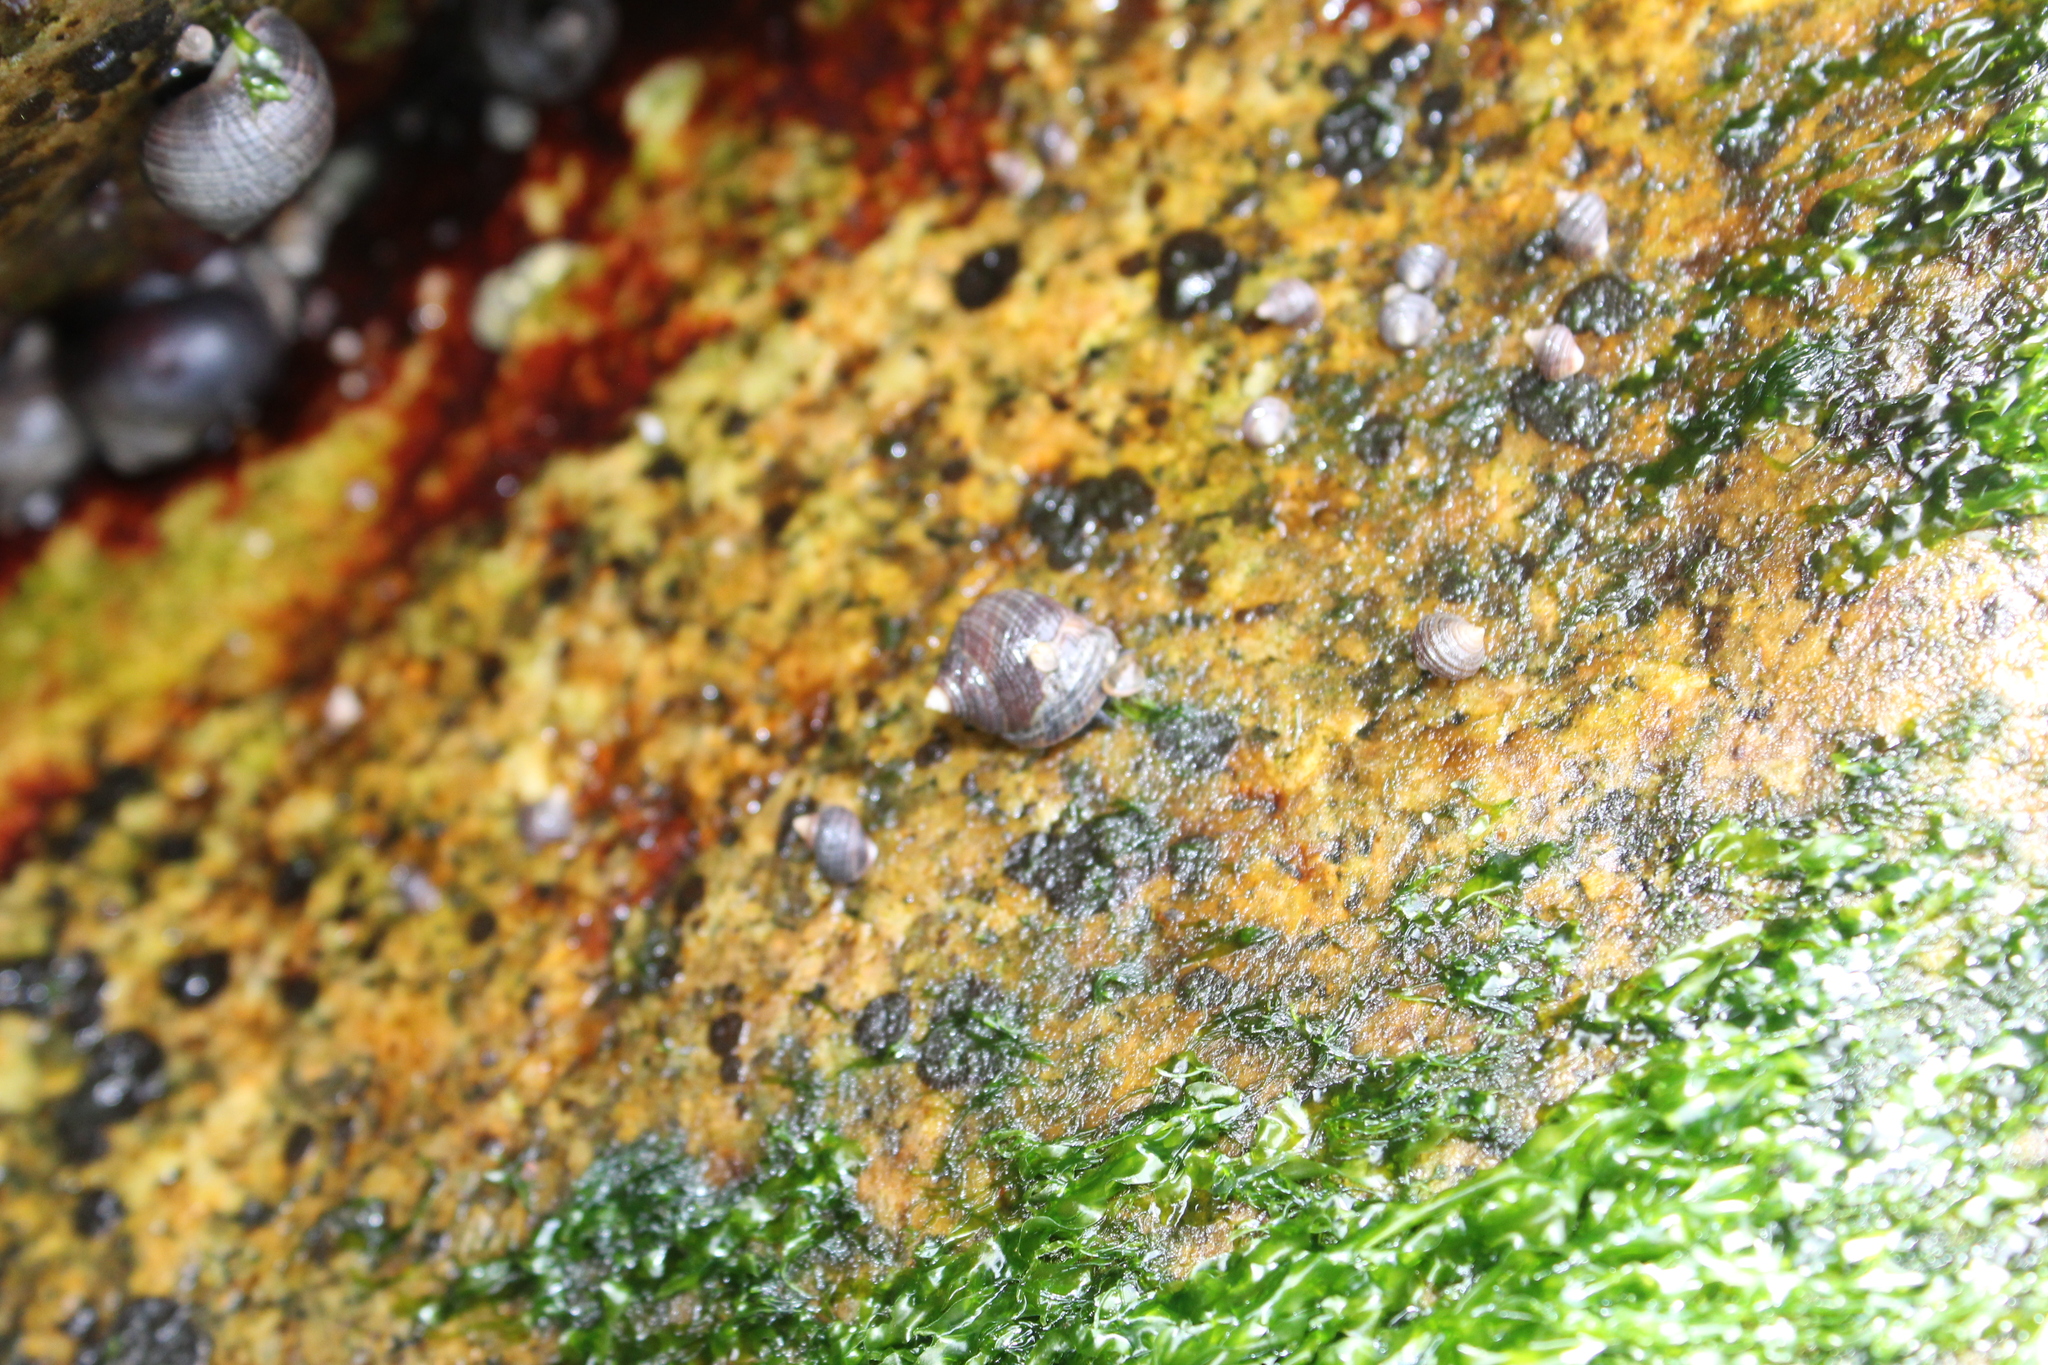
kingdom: Animalia
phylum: Mollusca
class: Gastropoda
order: Littorinimorpha
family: Littorinidae
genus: Littorina
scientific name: Littorina littorea
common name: Common periwinkle
